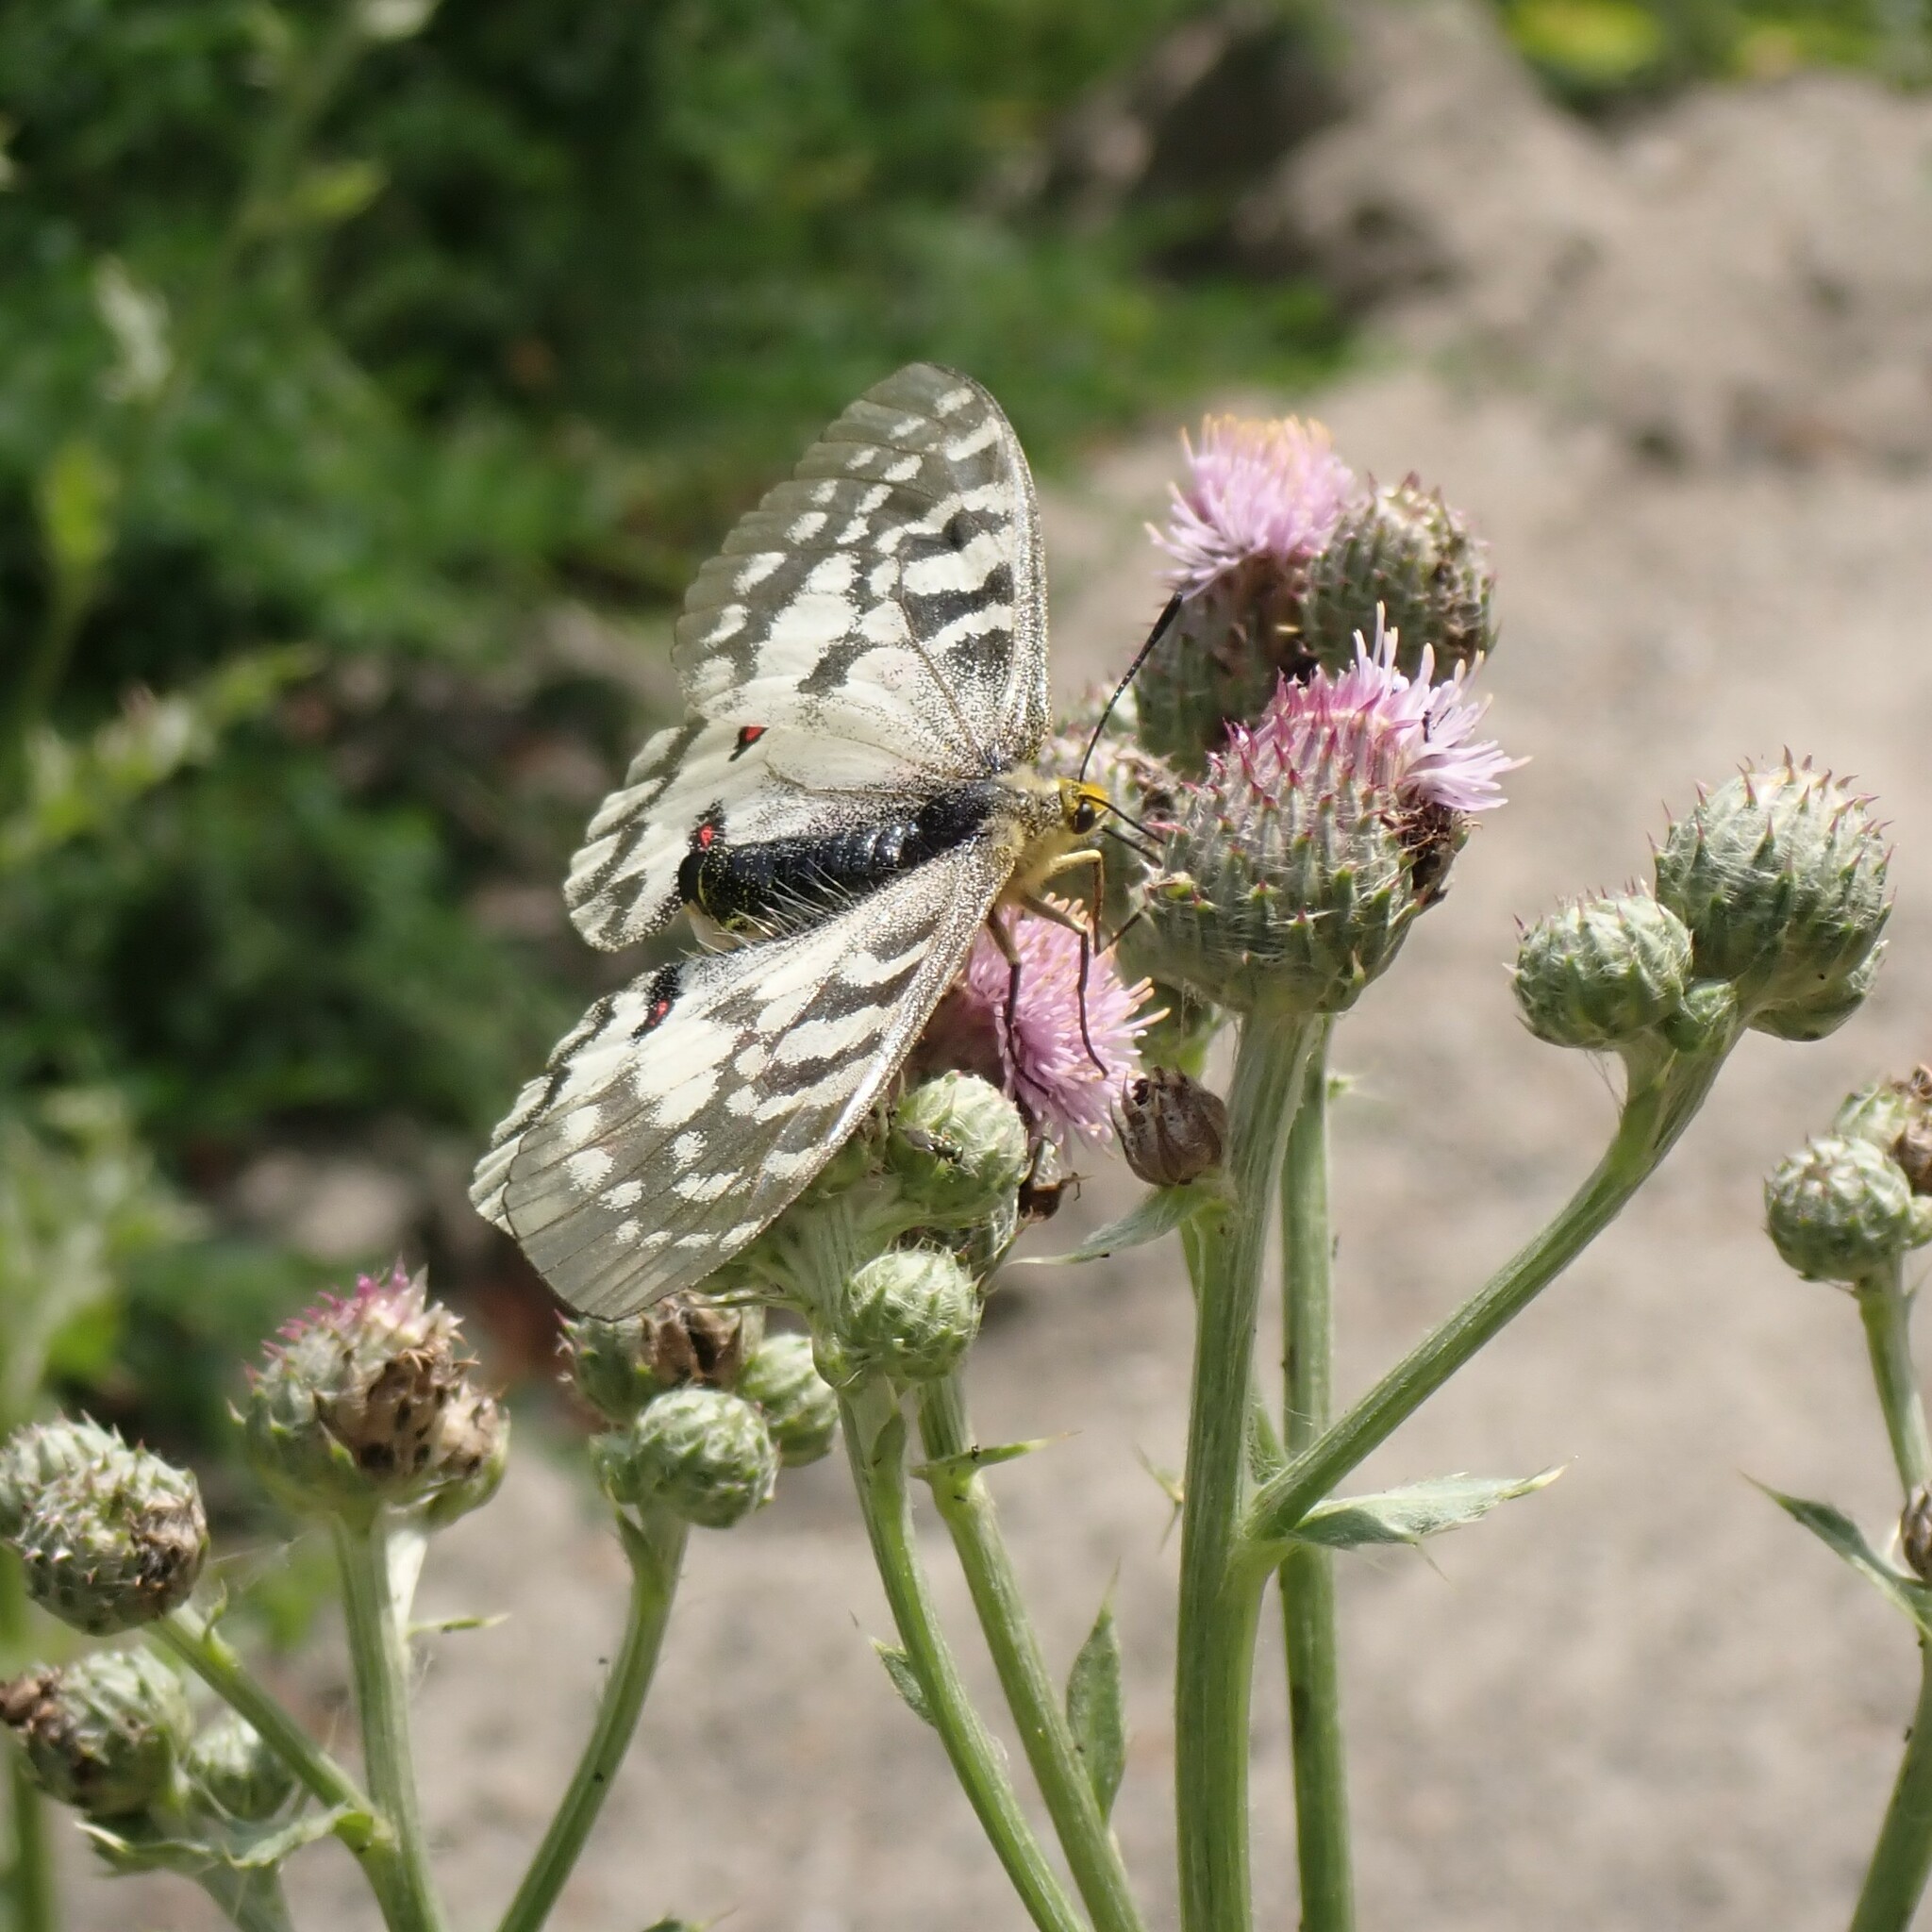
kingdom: Animalia
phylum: Arthropoda
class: Insecta
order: Lepidoptera
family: Papilionidae
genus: Parnassius
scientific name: Parnassius clodius
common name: American apollo
